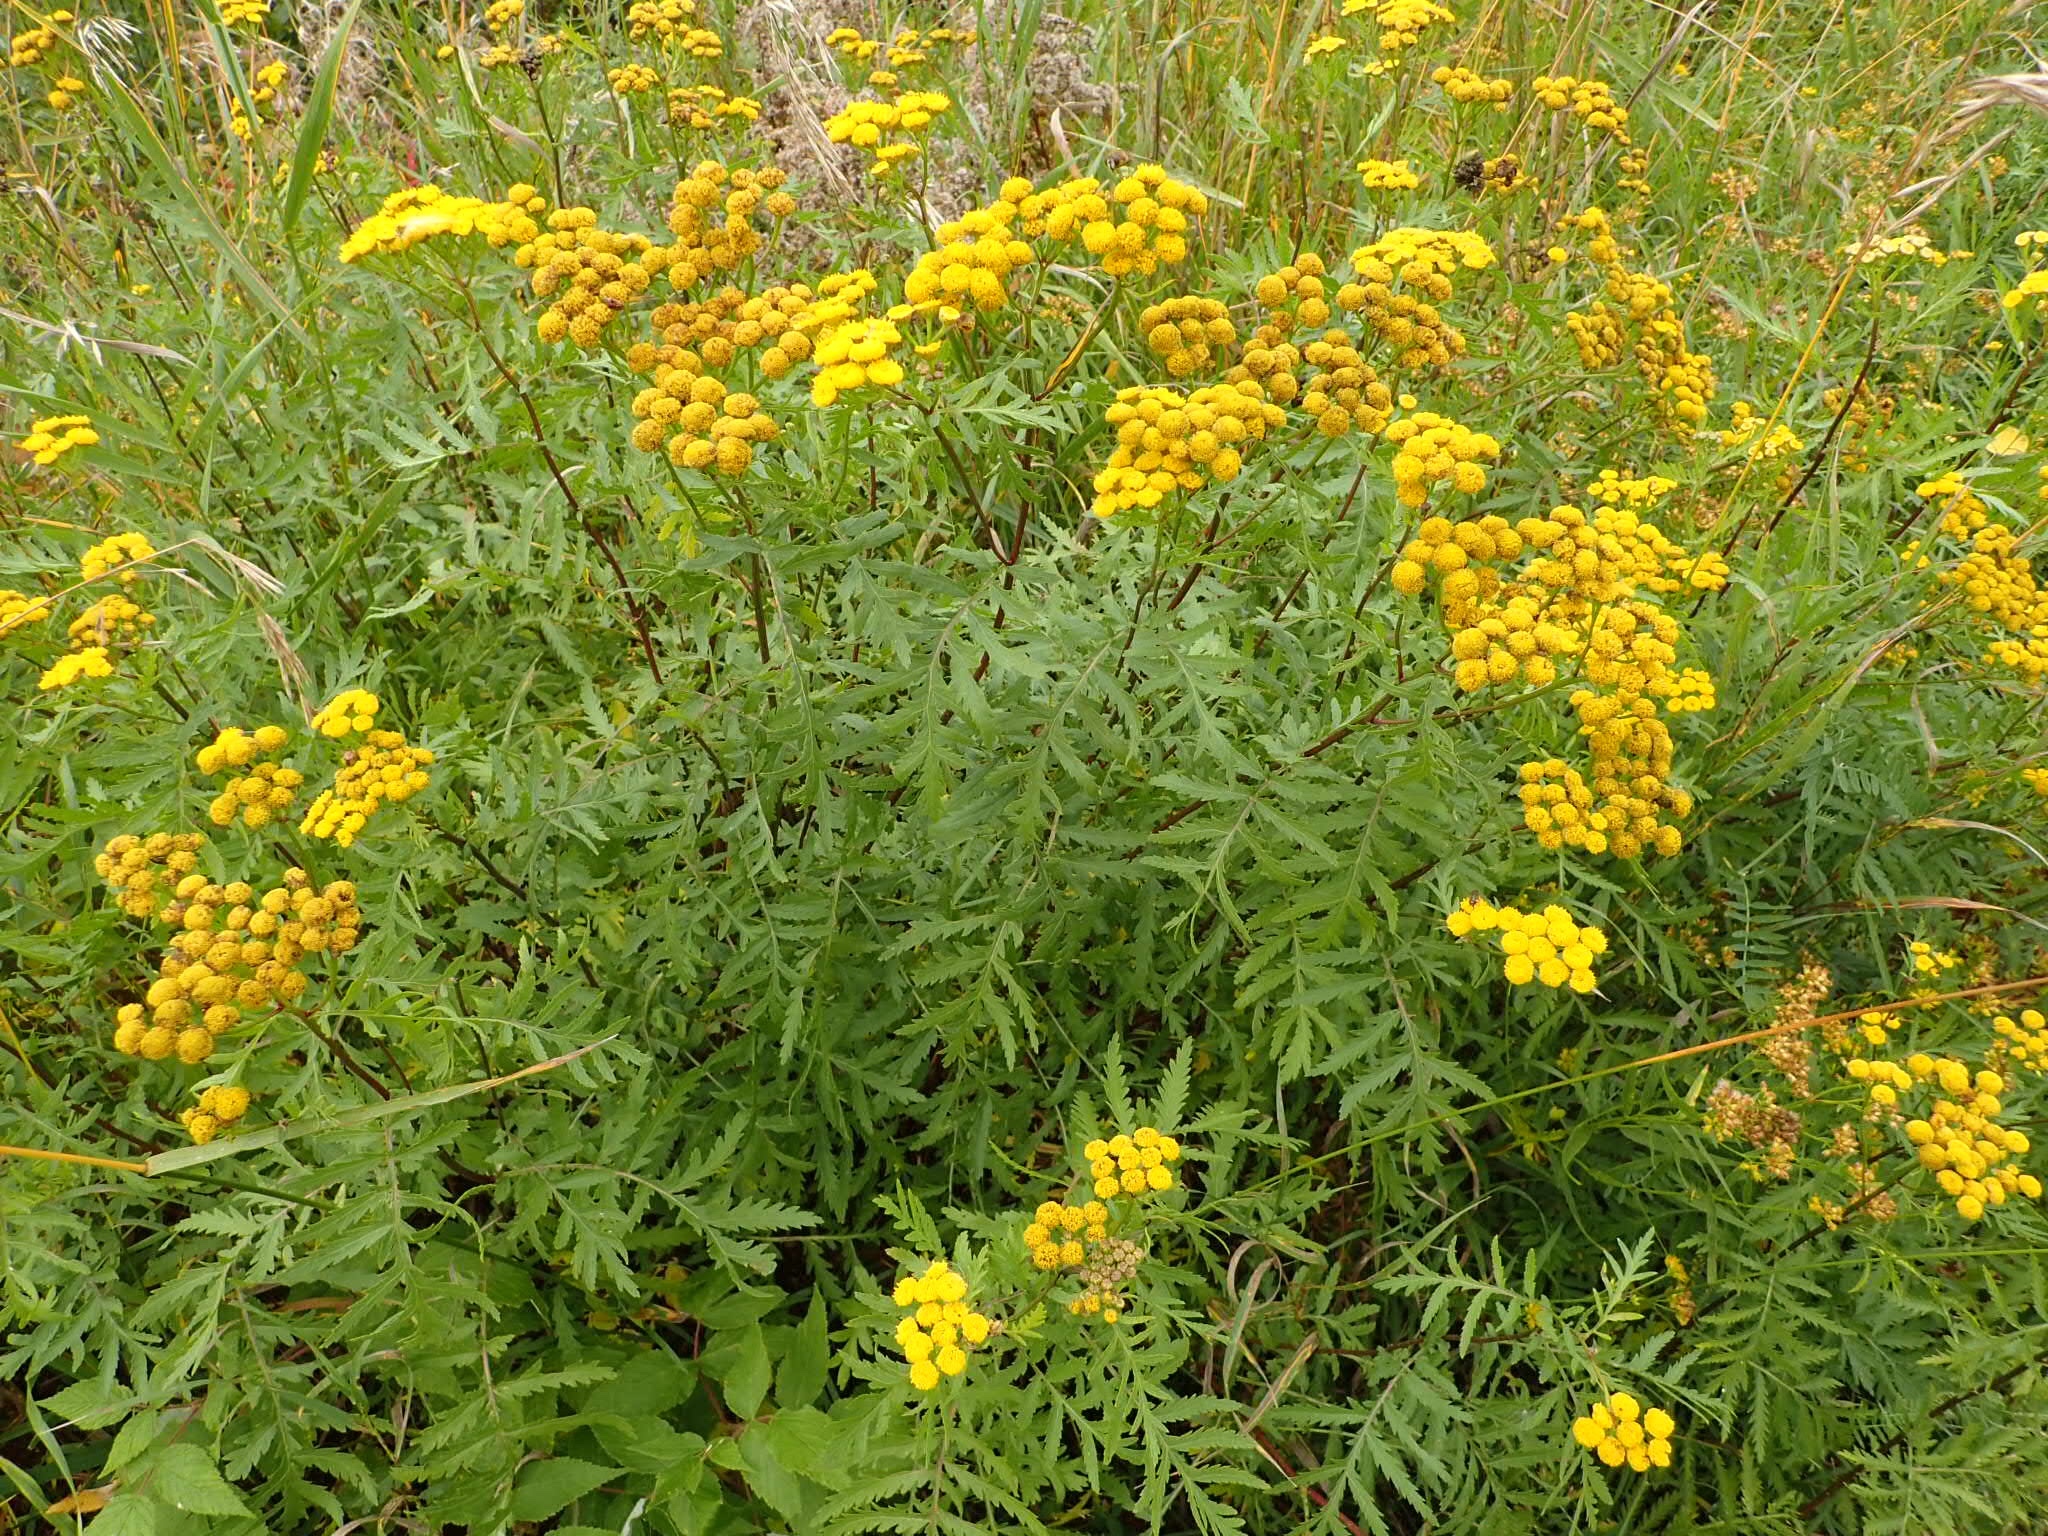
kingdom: Plantae
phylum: Tracheophyta
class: Magnoliopsida
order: Asterales
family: Asteraceae
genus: Tanacetum
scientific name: Tanacetum vulgare
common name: Common tansy
